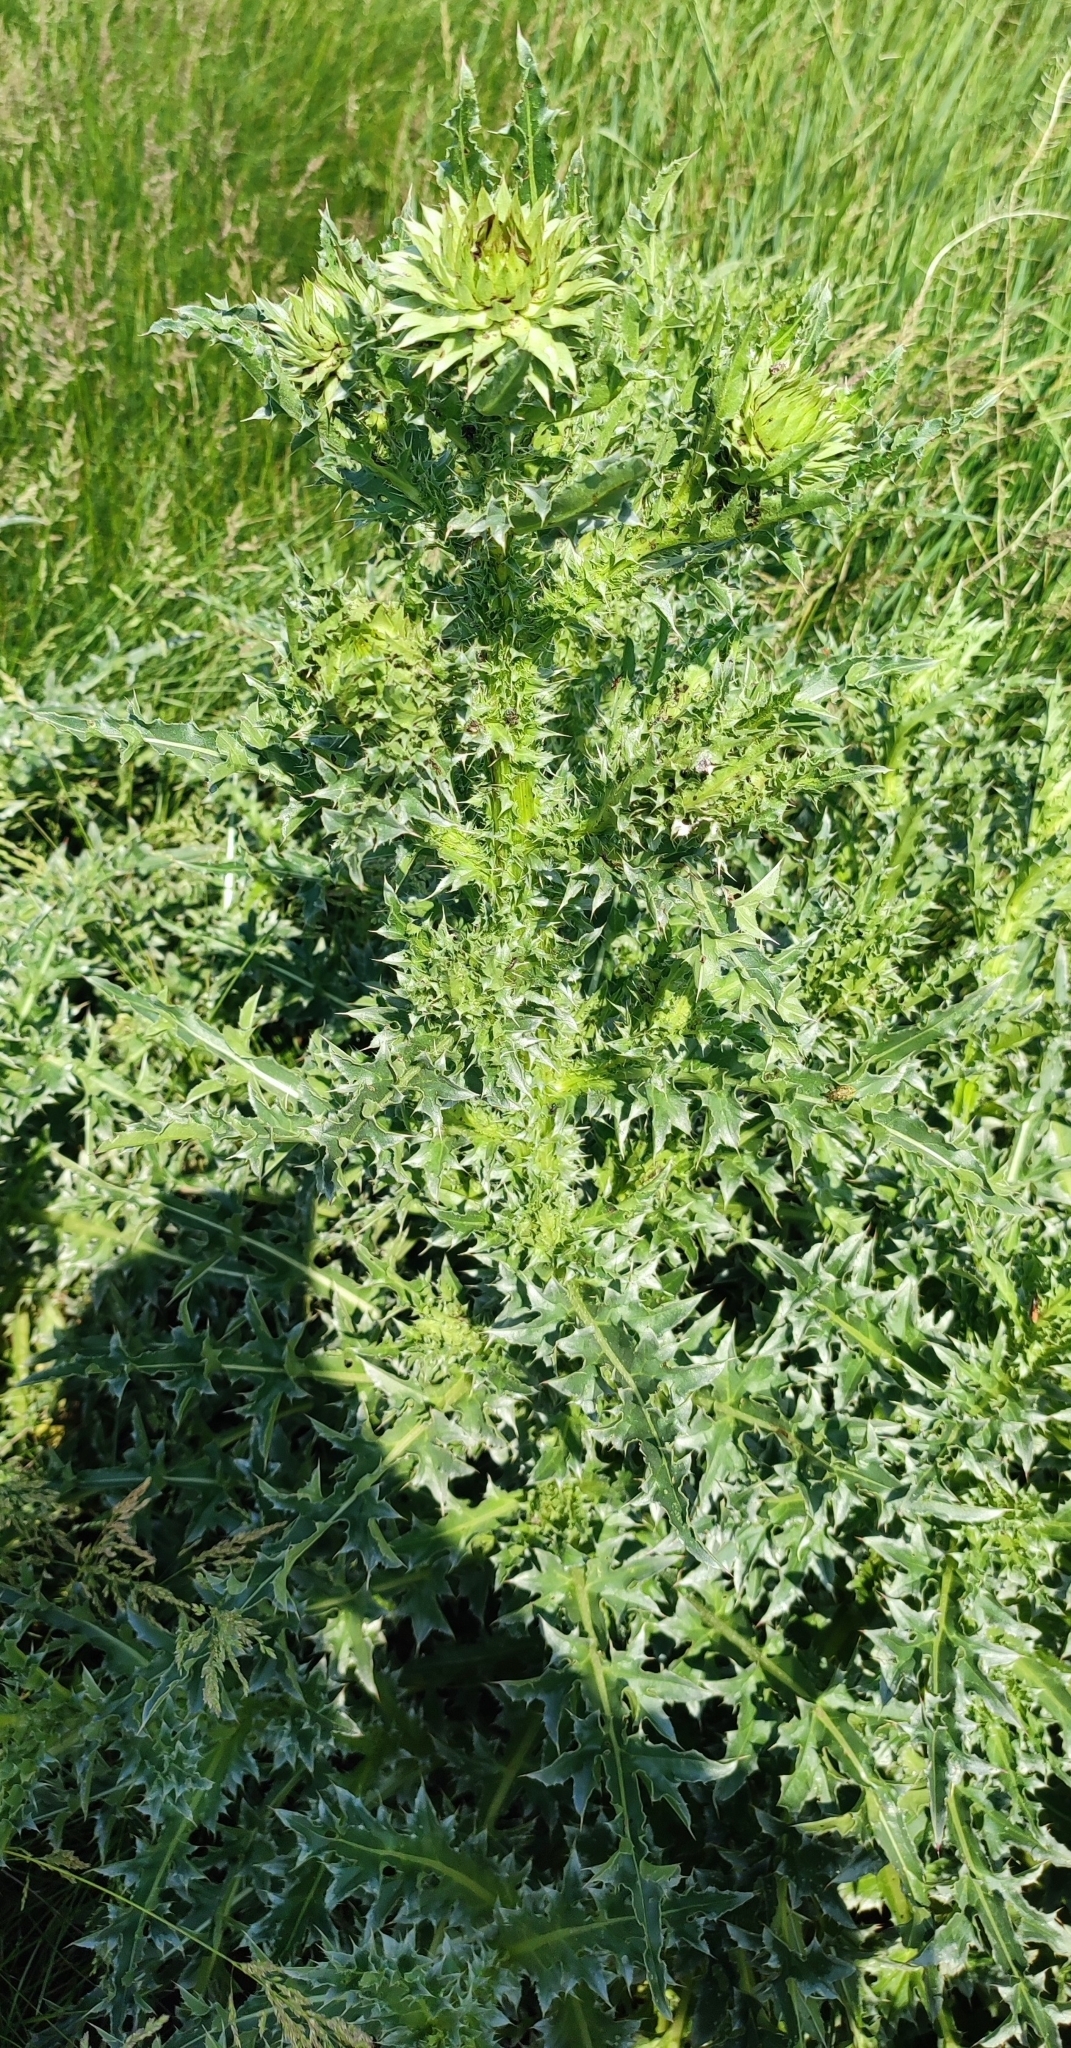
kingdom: Plantae
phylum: Tracheophyta
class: Magnoliopsida
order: Asterales
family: Asteraceae
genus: Carduus
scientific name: Carduus nutans
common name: Musk thistle
